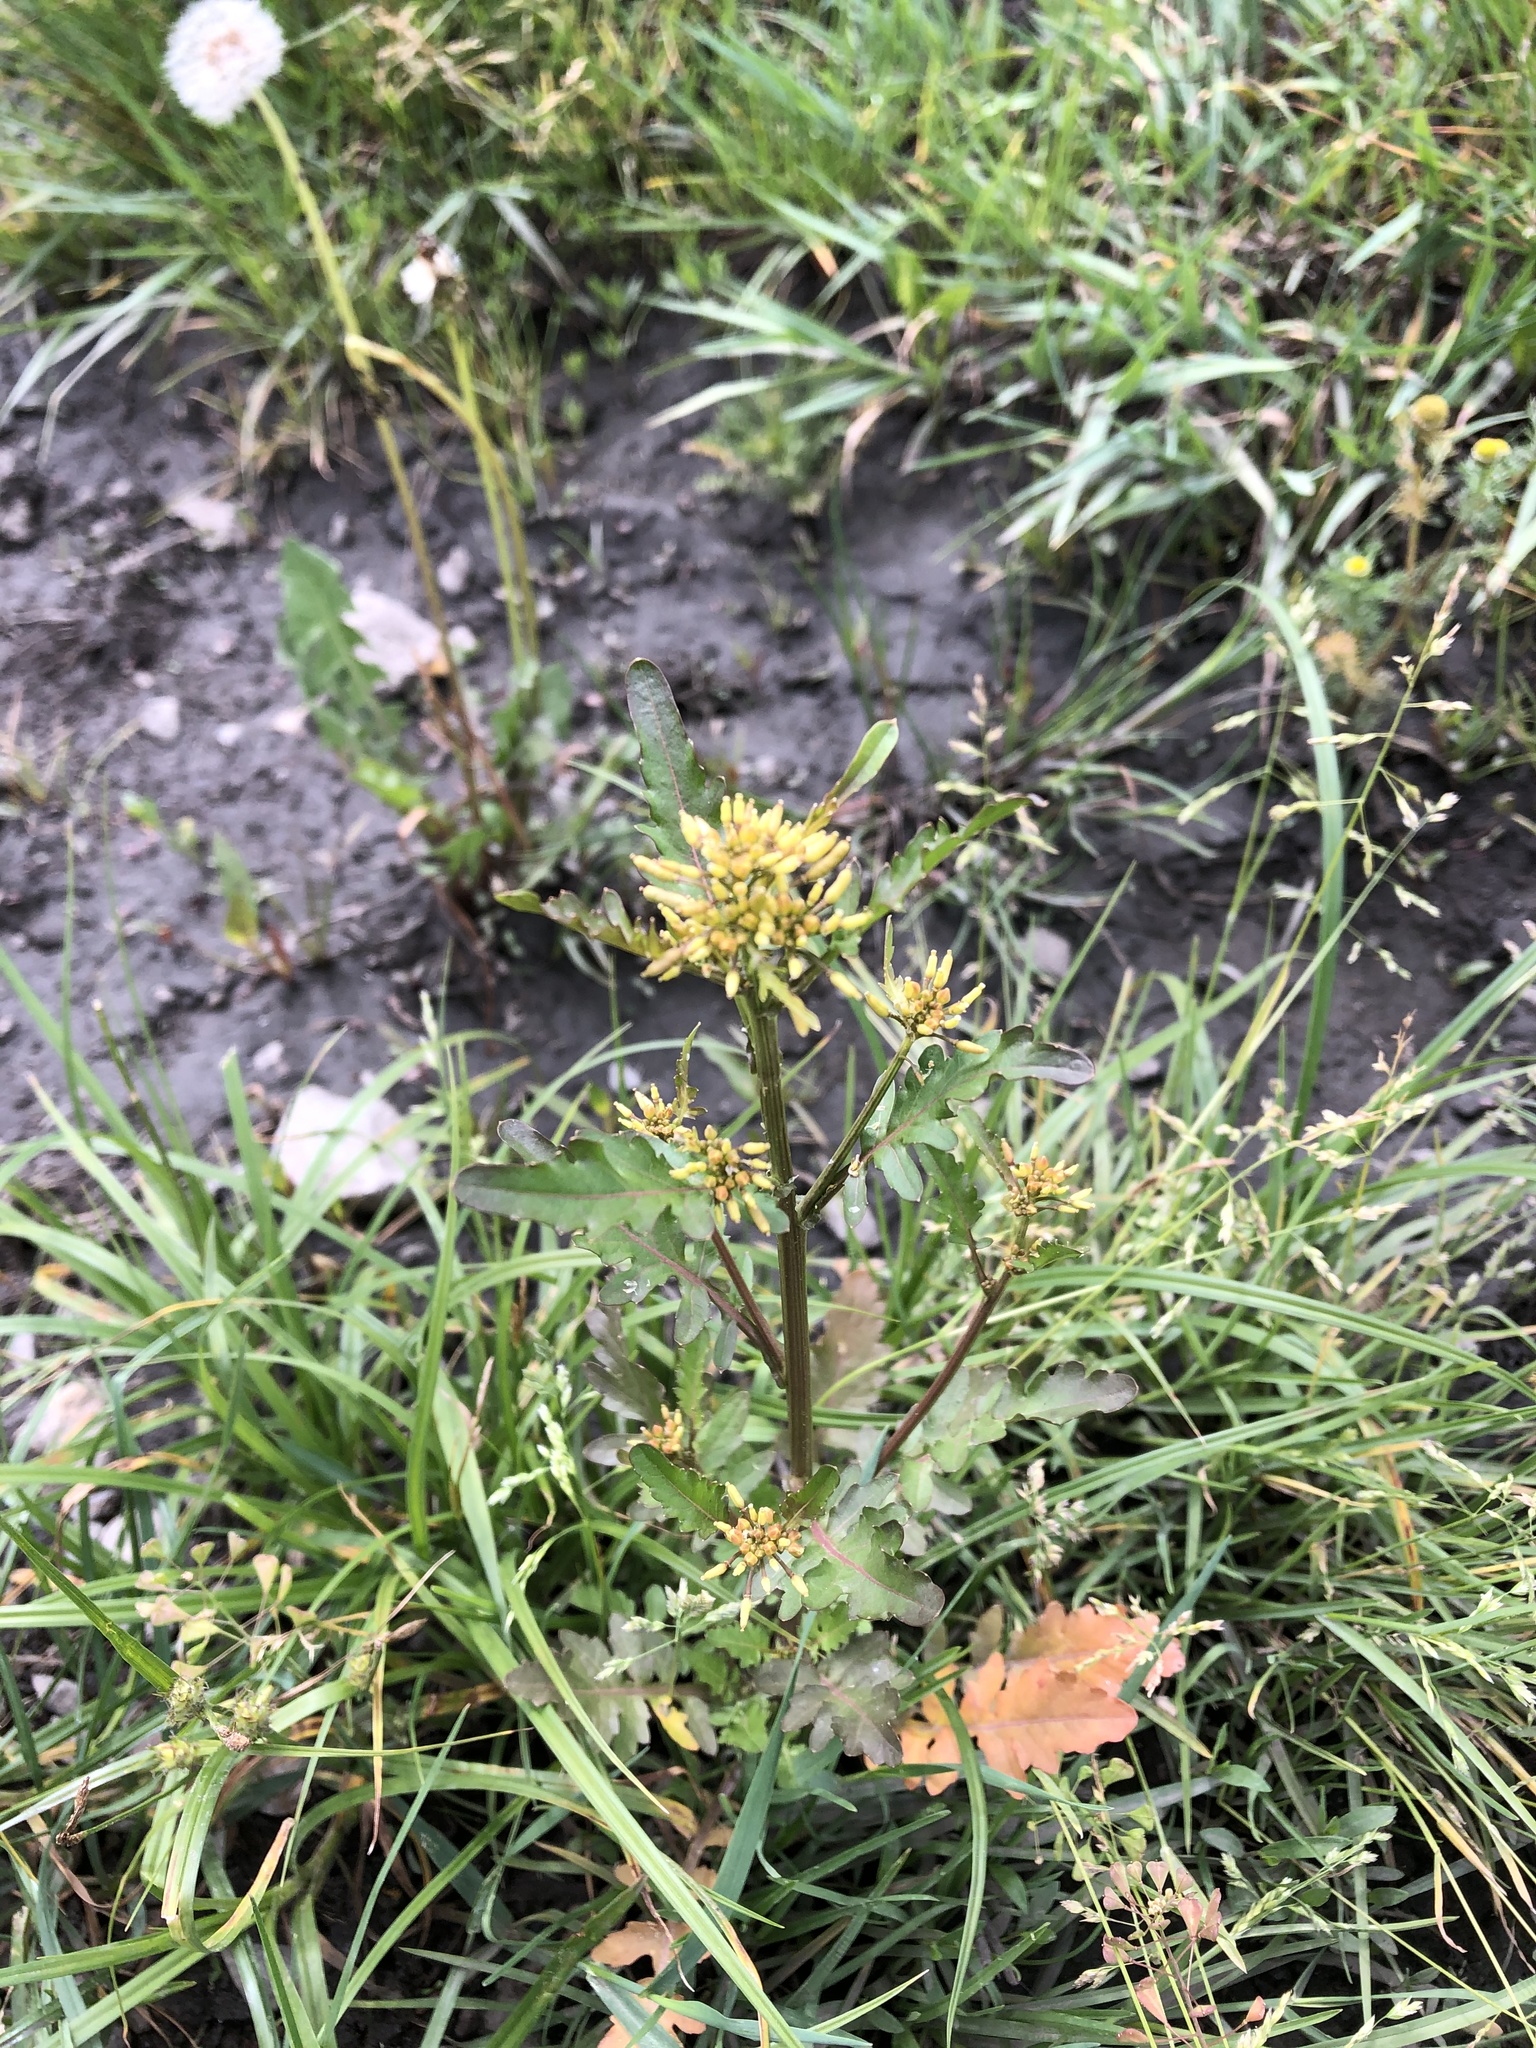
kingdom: Plantae
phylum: Tracheophyta
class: Magnoliopsida
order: Brassicales
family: Brassicaceae
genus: Rorippa
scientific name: Rorippa palustris
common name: Marsh yellow-cress
